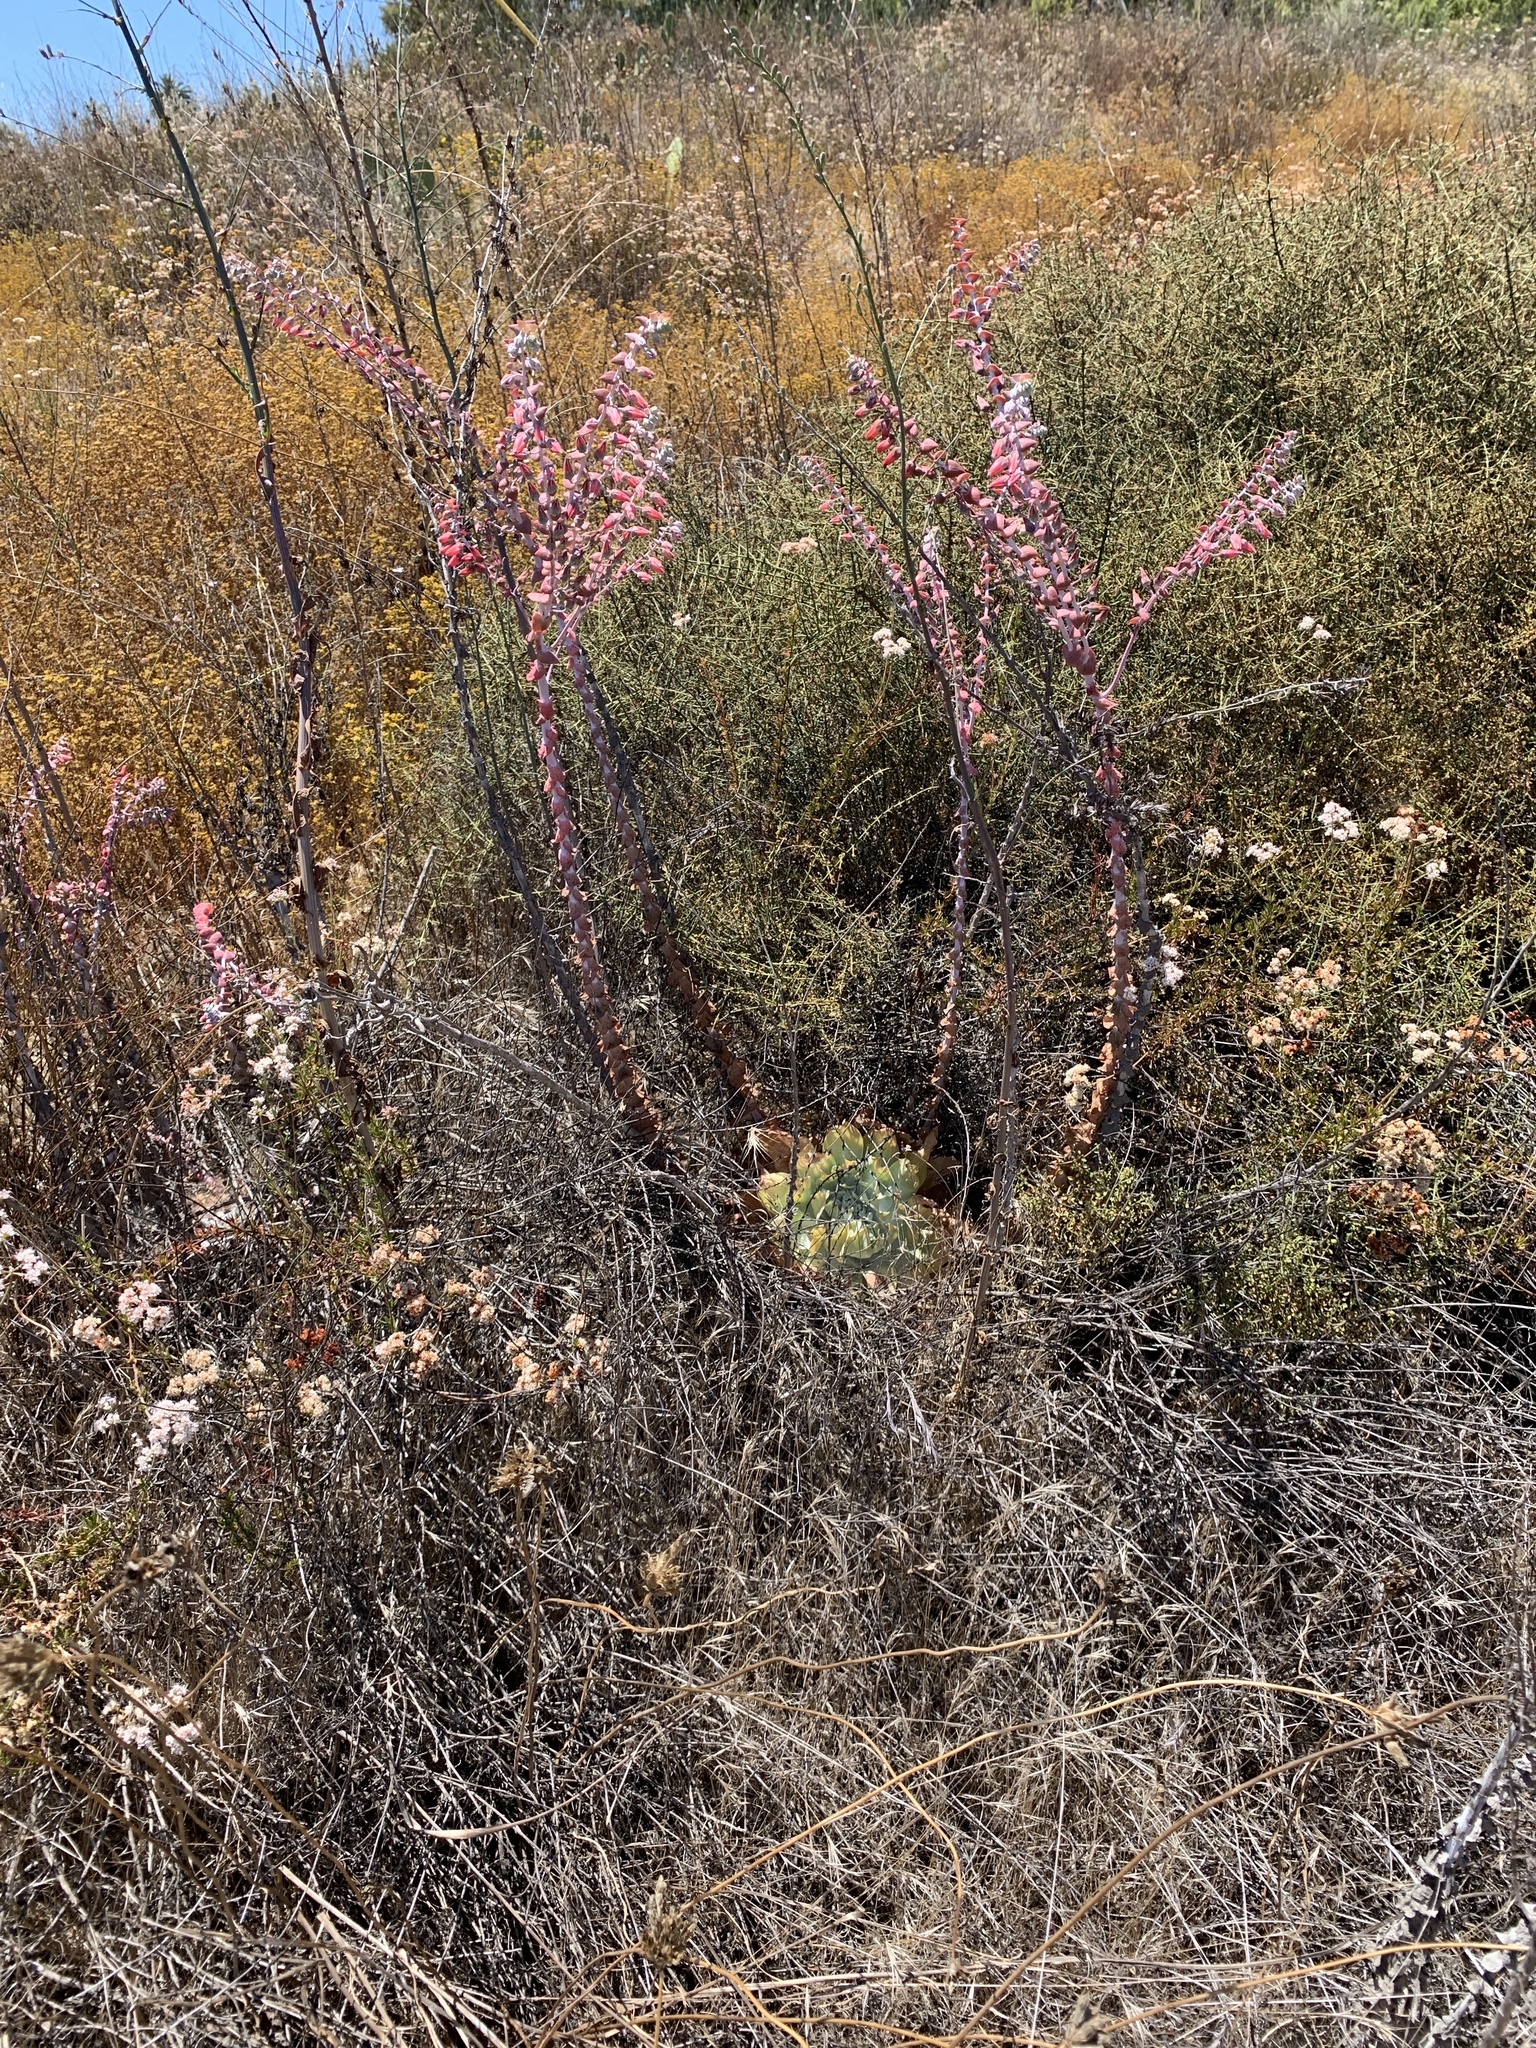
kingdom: Plantae
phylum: Tracheophyta
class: Magnoliopsida
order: Saxifragales
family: Crassulaceae
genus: Dudleya
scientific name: Dudleya pulverulenta
